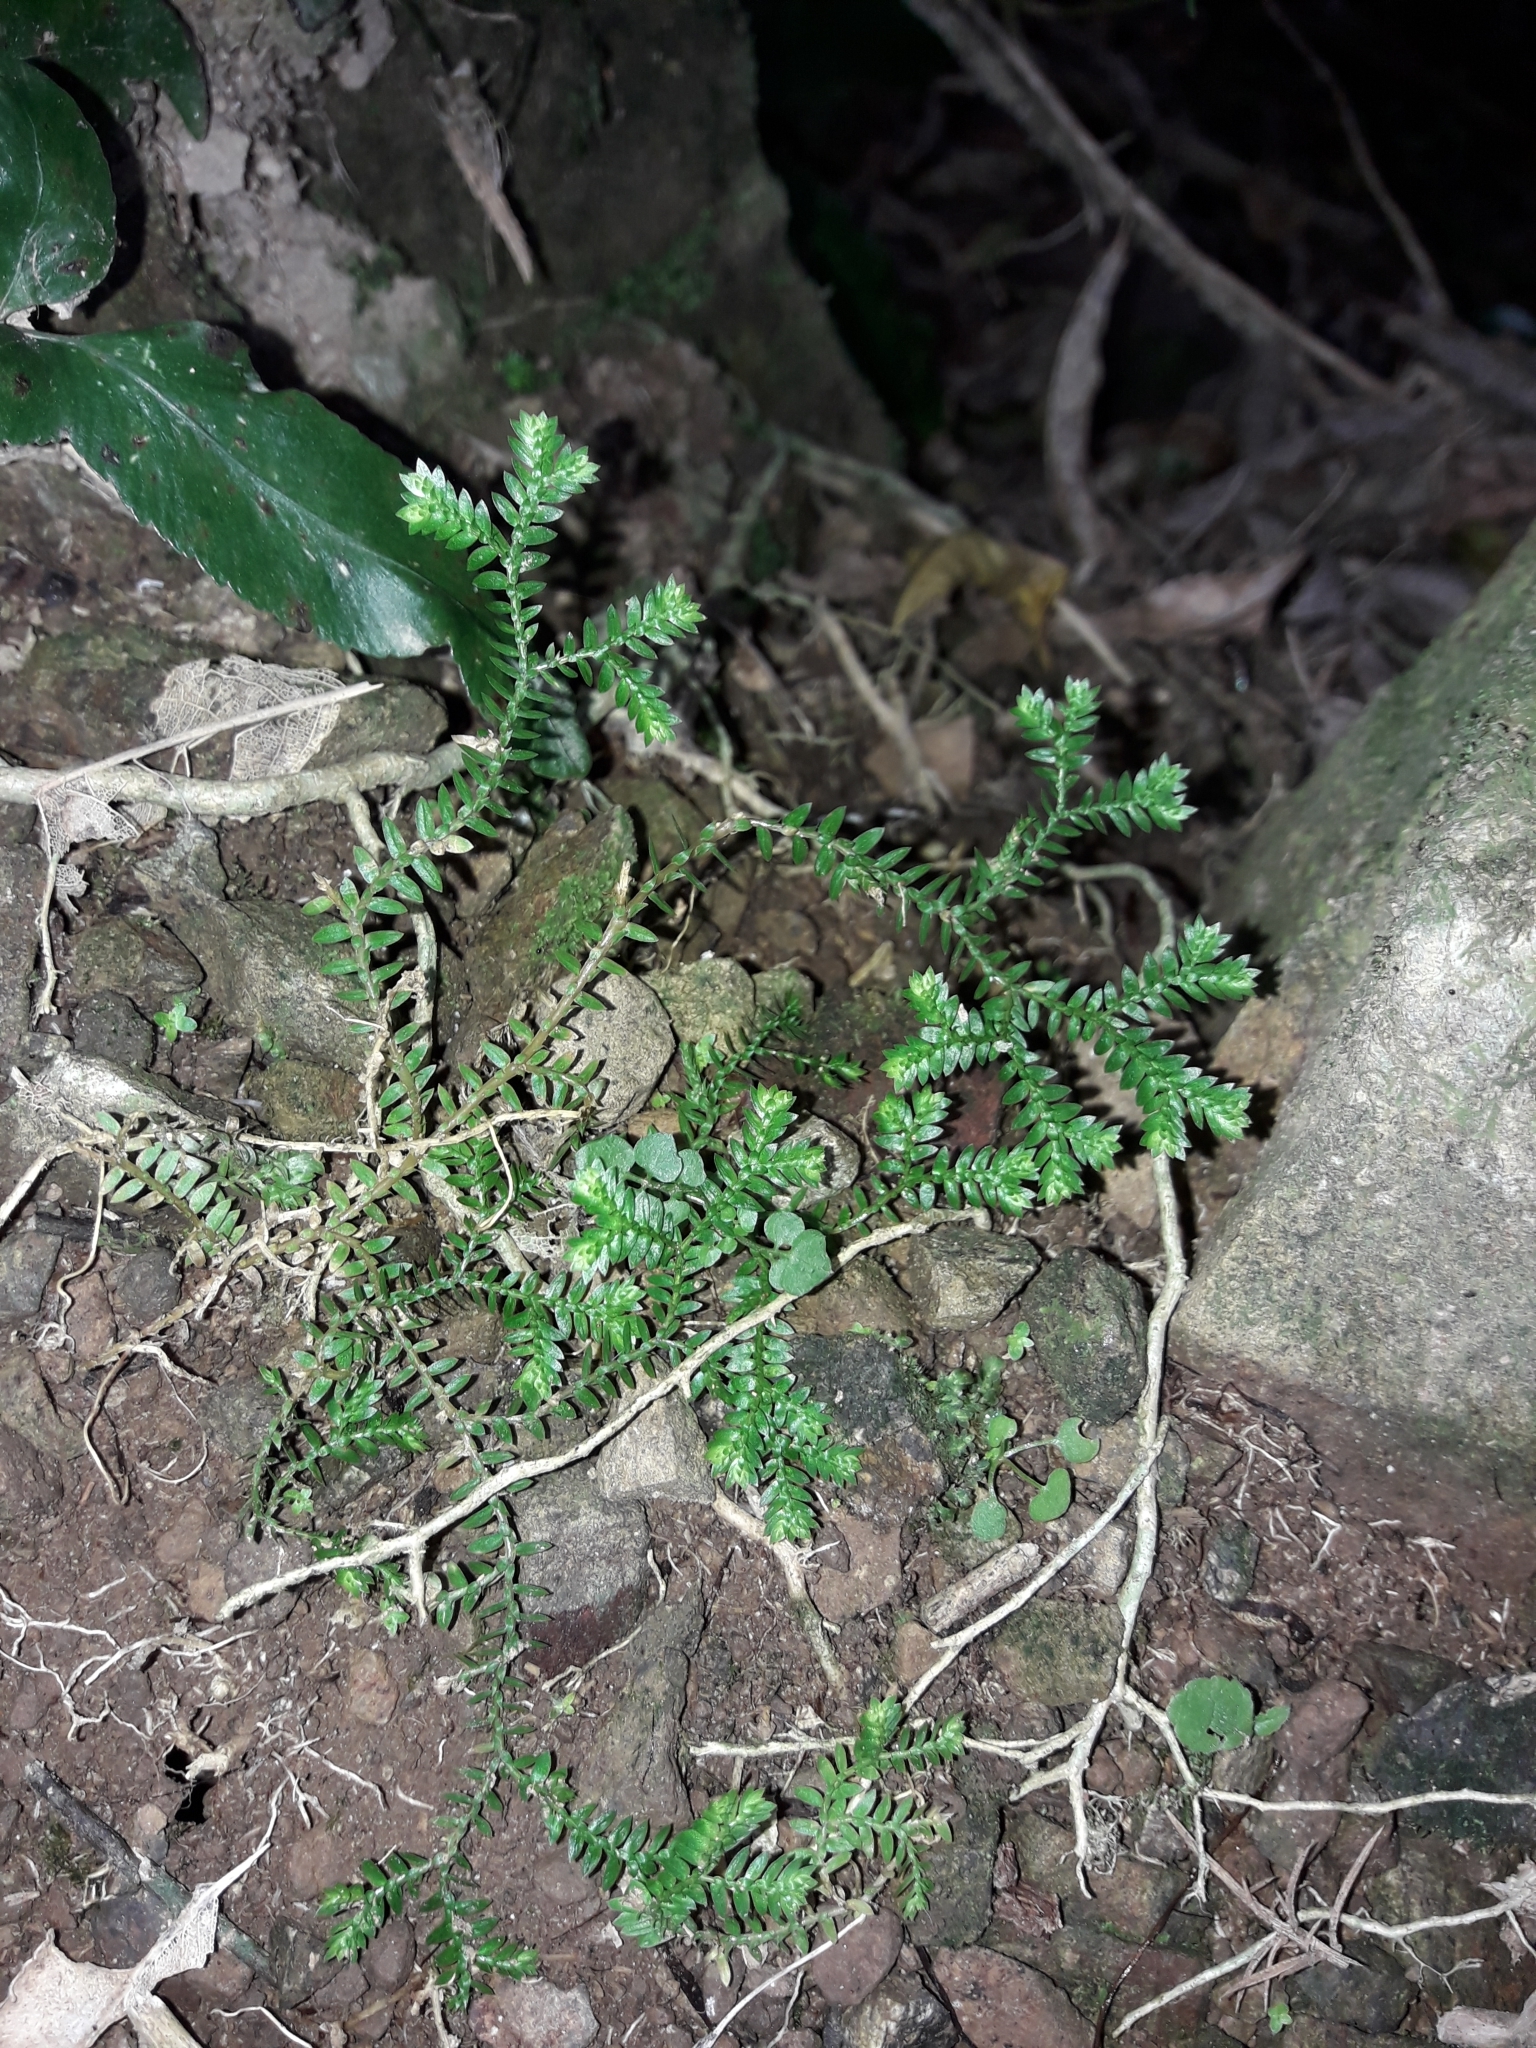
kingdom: Plantae
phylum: Tracheophyta
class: Lycopodiopsida
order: Selaginellales
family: Selaginellaceae
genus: Selaginella
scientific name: Selaginella kraussiana
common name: Krauss' spikemoss
